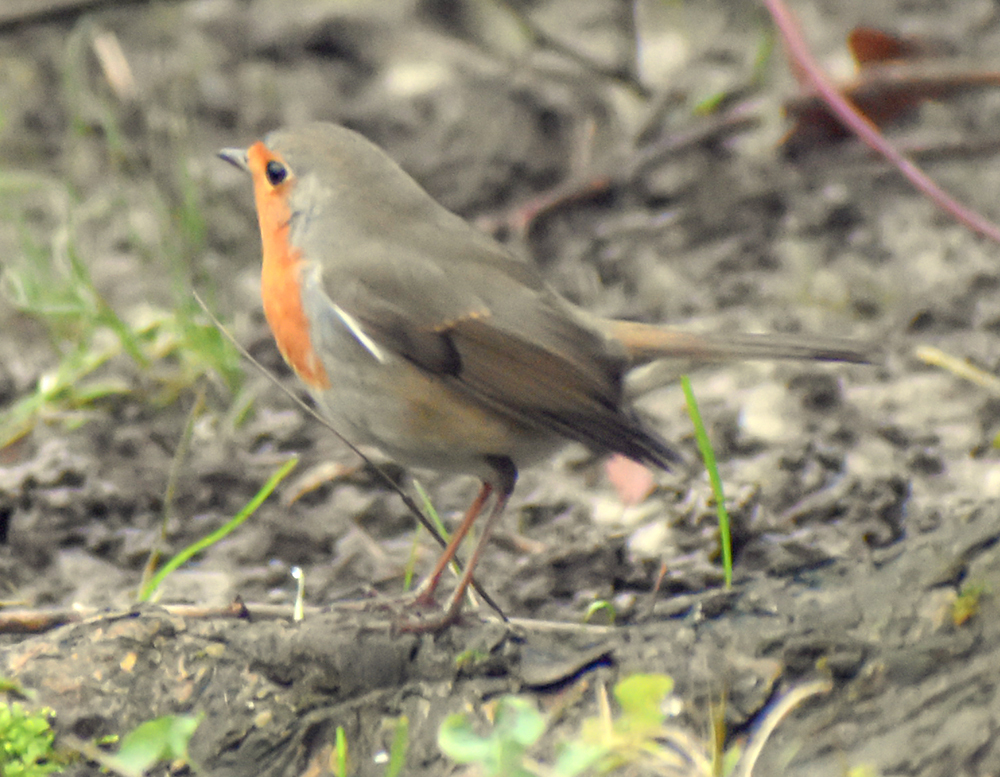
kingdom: Animalia
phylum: Chordata
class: Aves
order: Passeriformes
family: Muscicapidae
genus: Erithacus
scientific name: Erithacus rubecula
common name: European robin
